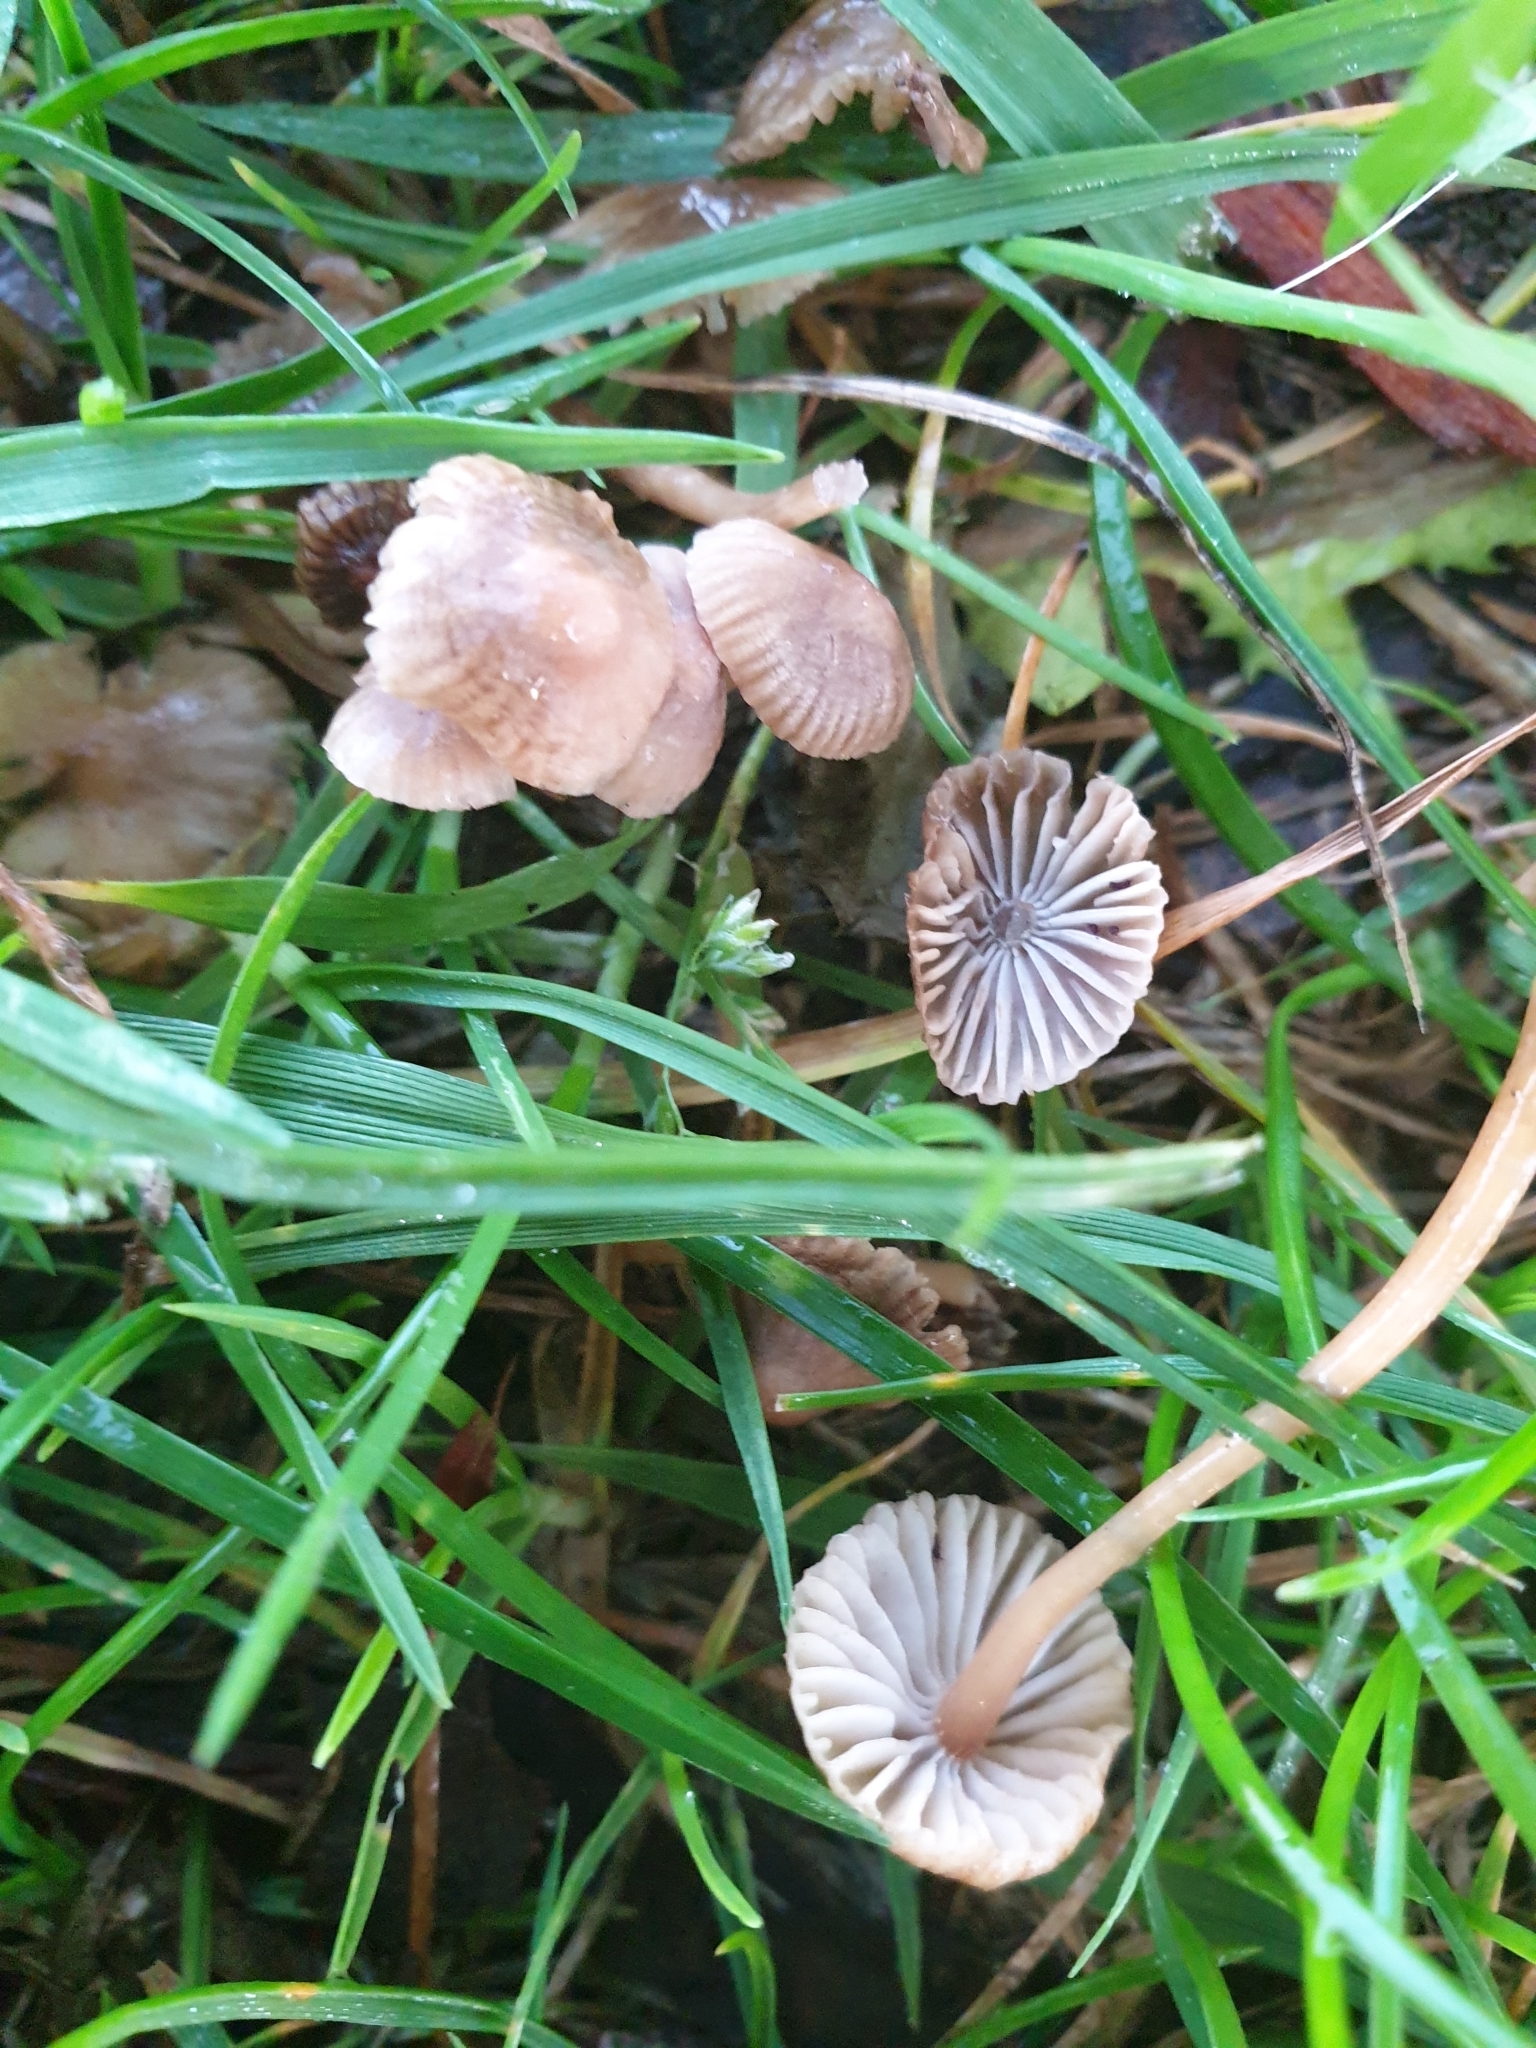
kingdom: Fungi
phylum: Basidiomycota
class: Agaricomycetes
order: Agaricales
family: Mycenaceae
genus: Mycena
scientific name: Mycena olivaceomarginata
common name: Brownedge bonnet
